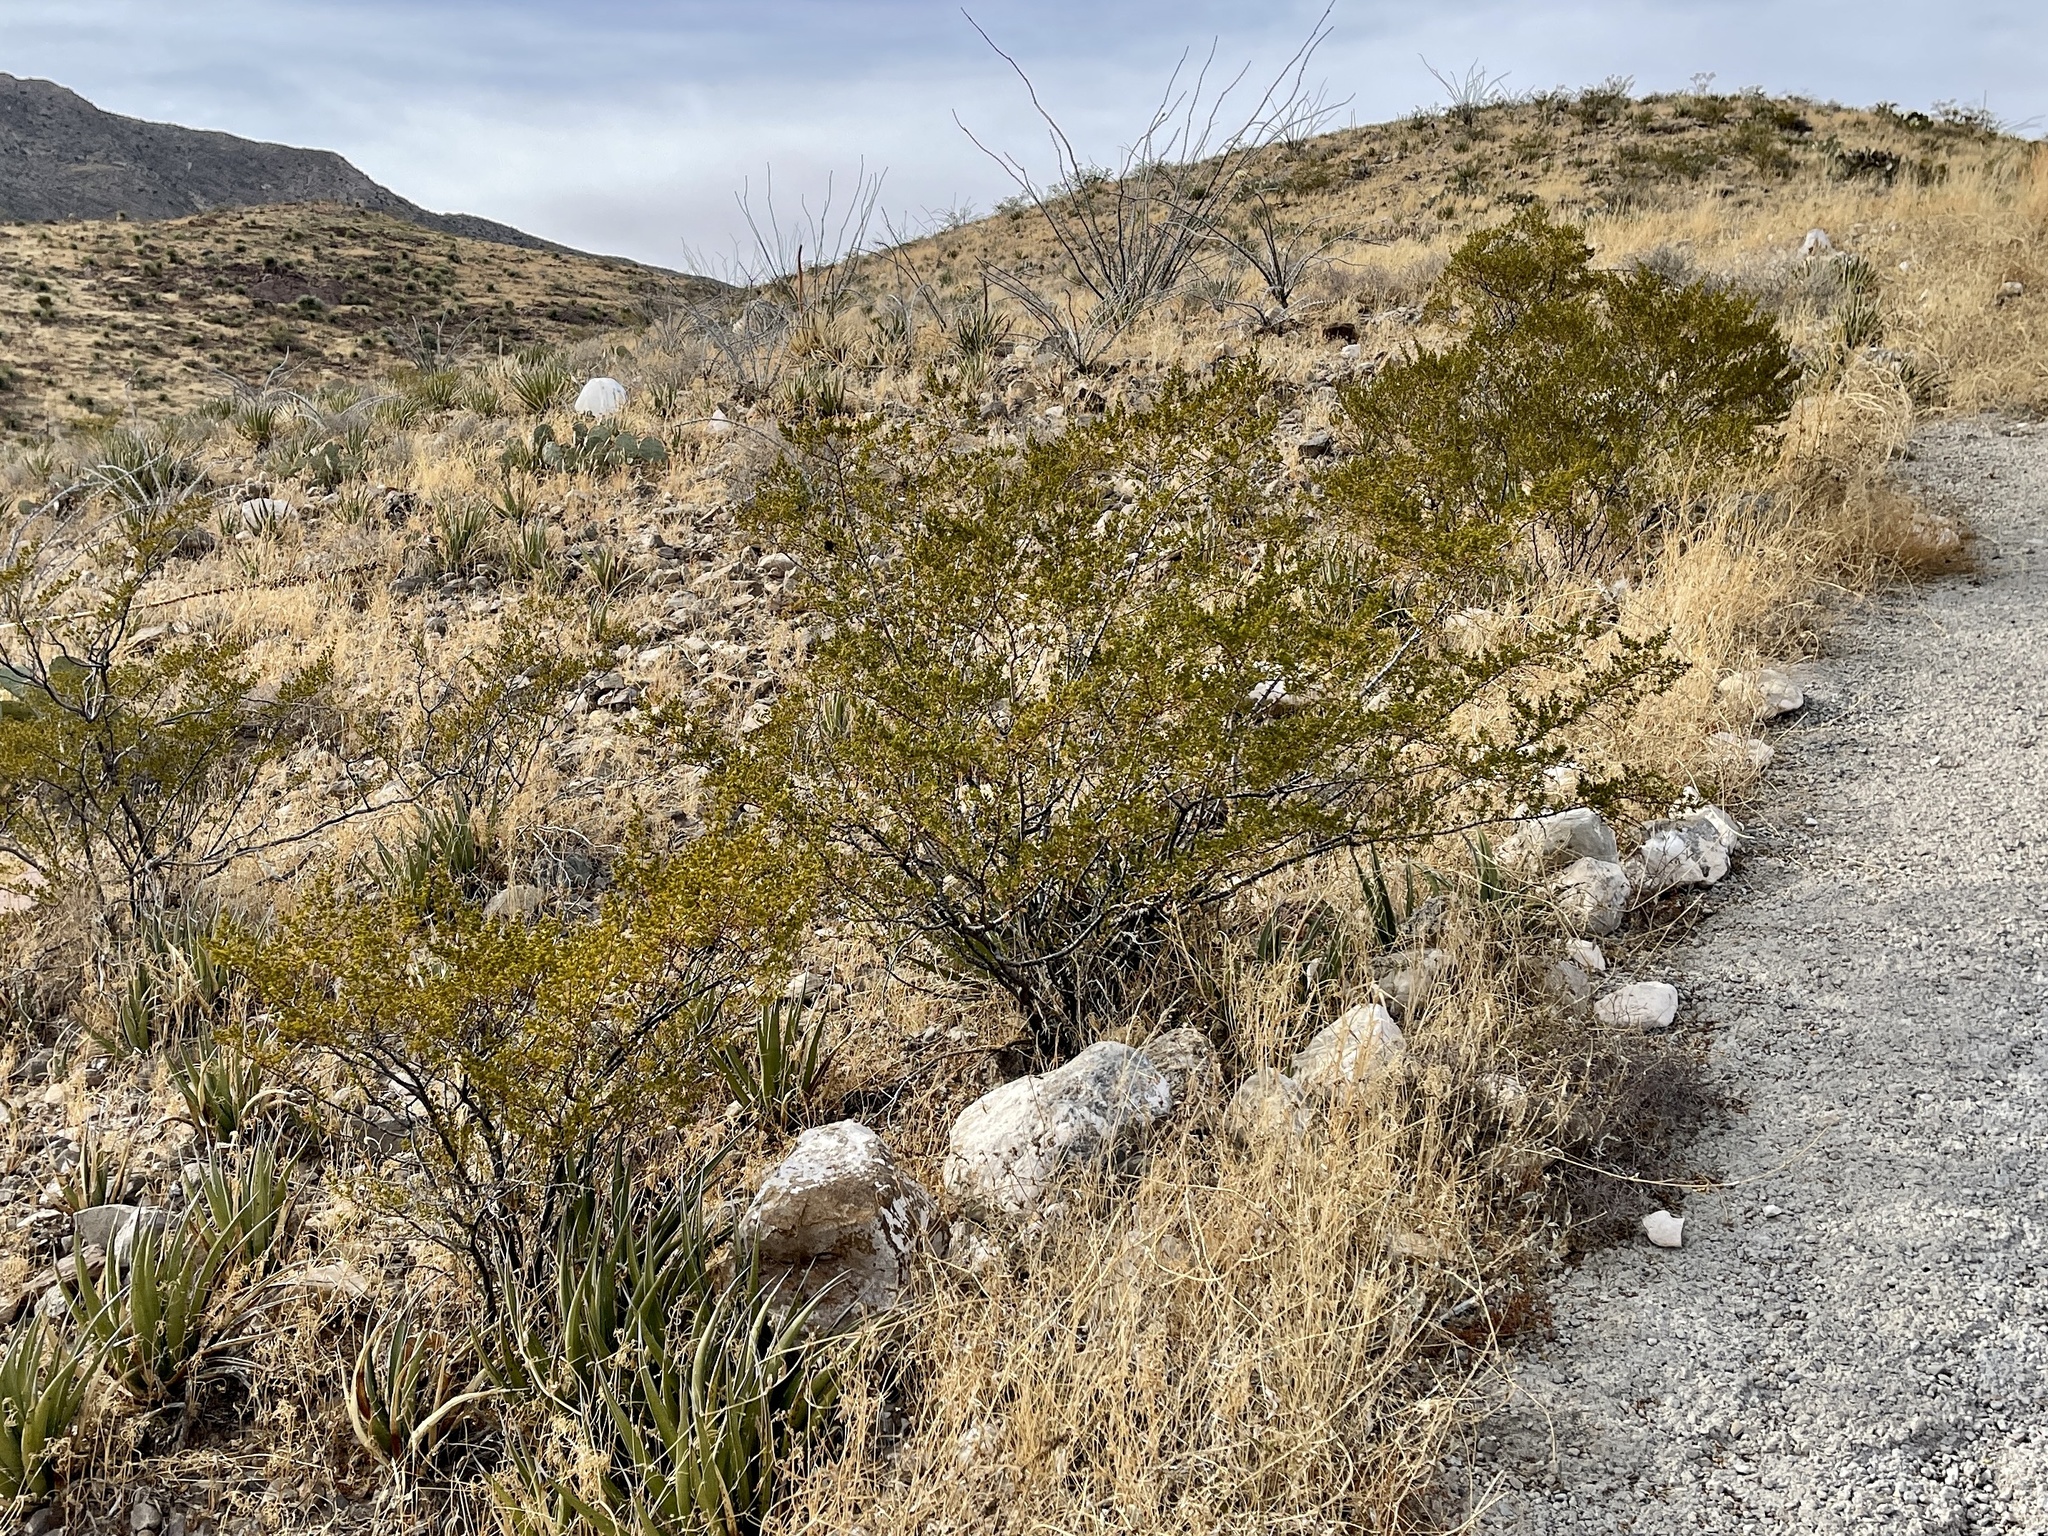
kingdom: Plantae
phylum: Tracheophyta
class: Magnoliopsida
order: Zygophyllales
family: Zygophyllaceae
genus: Larrea
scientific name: Larrea tridentata
